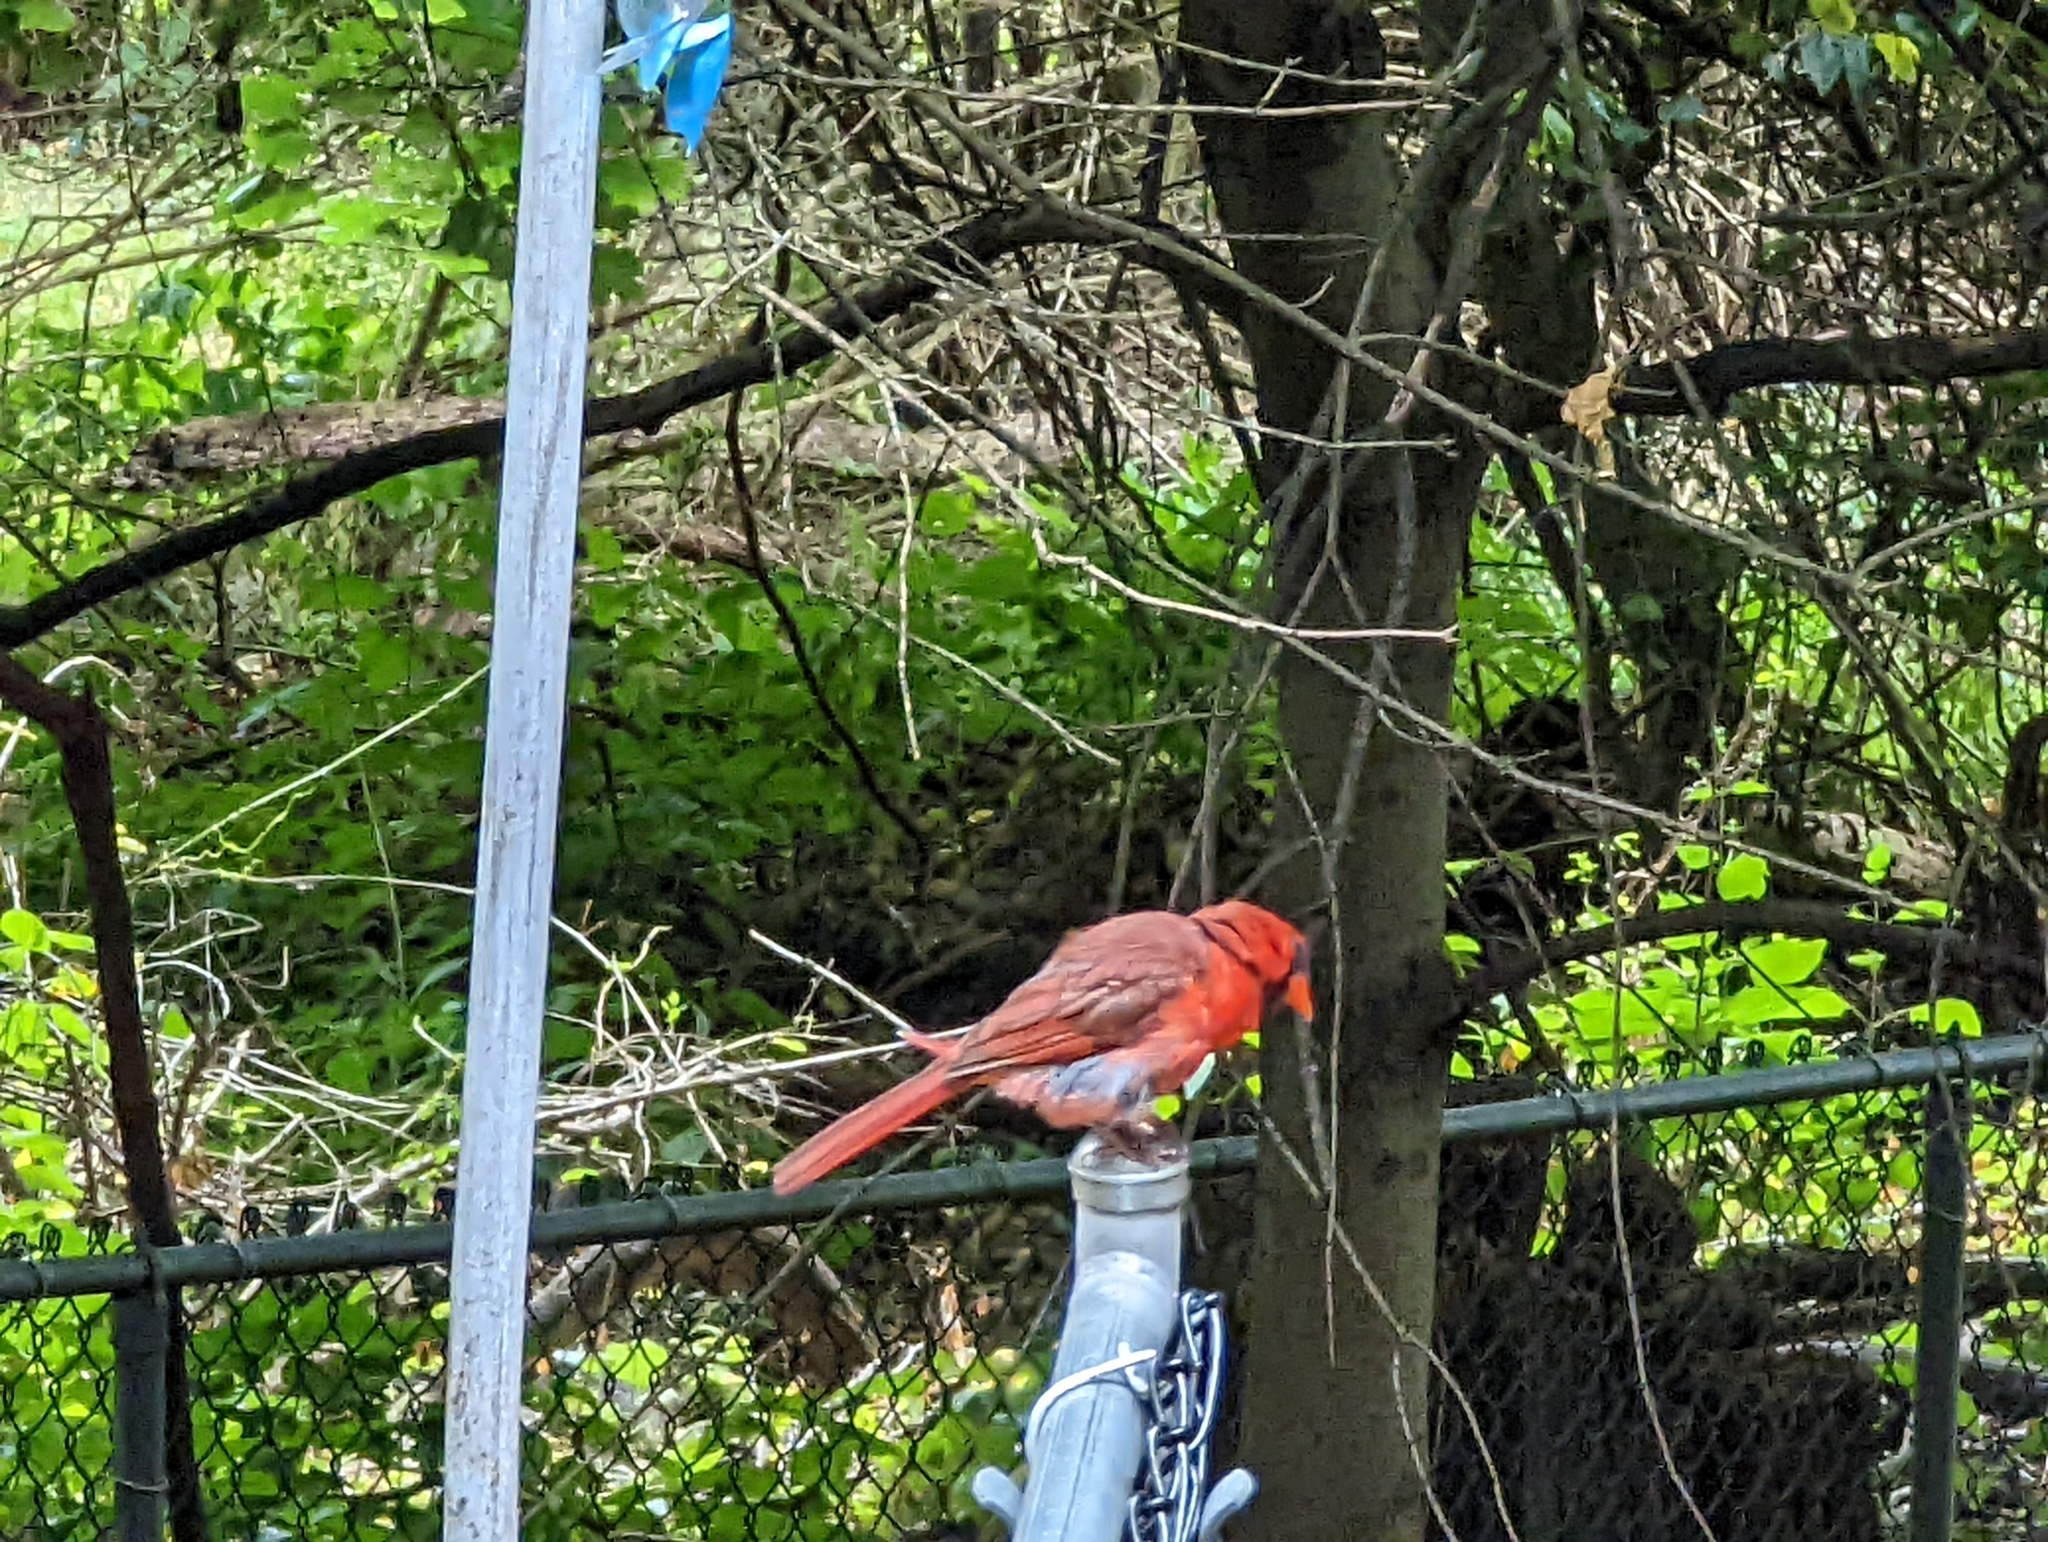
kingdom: Animalia
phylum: Chordata
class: Aves
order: Passeriformes
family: Cardinalidae
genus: Cardinalis
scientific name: Cardinalis cardinalis
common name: Northern cardinal
